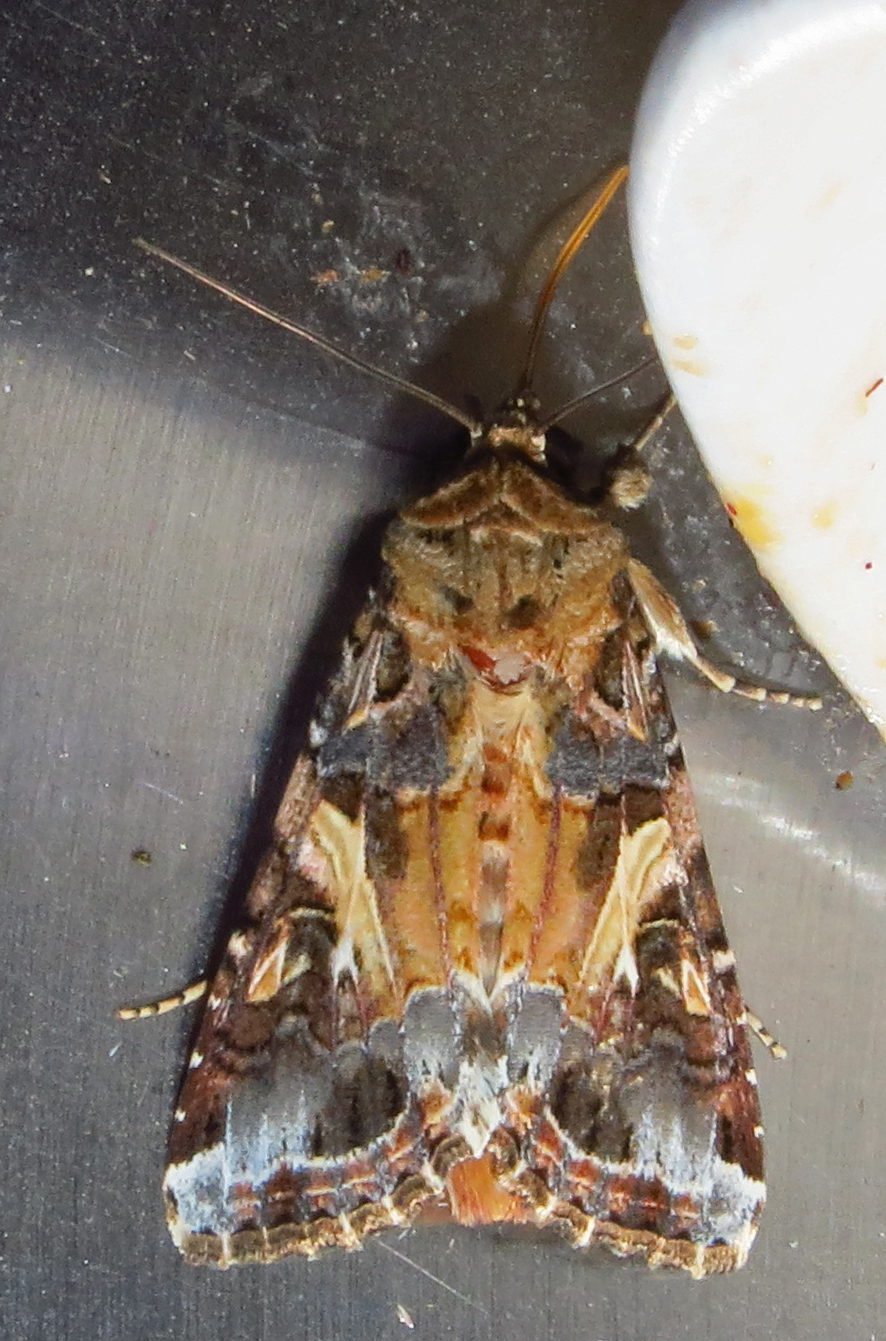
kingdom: Animalia
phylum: Arthropoda
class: Insecta
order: Lepidoptera
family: Noctuidae
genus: Spodoptera
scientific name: Spodoptera ornithogalli
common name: Yellow-striped armyworm
